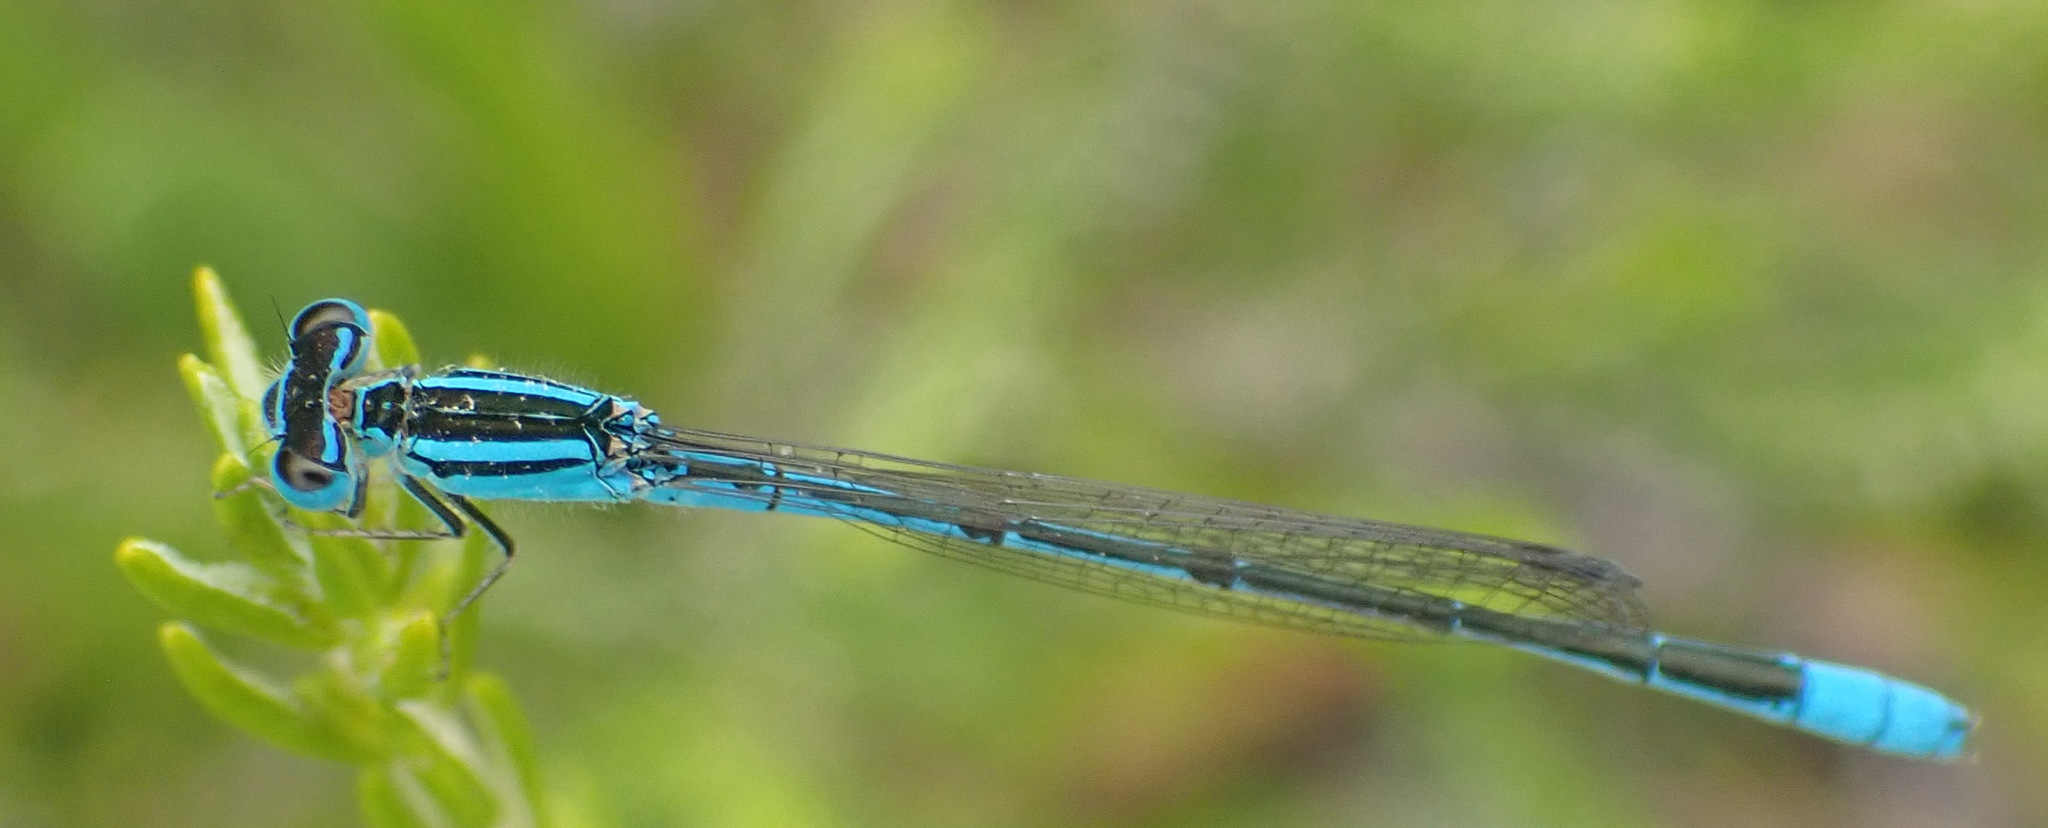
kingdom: Animalia
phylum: Arthropoda
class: Insecta
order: Odonata
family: Coenagrionidae
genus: Africallagma
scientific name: Africallagma glaucum
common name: Swamp bluet
